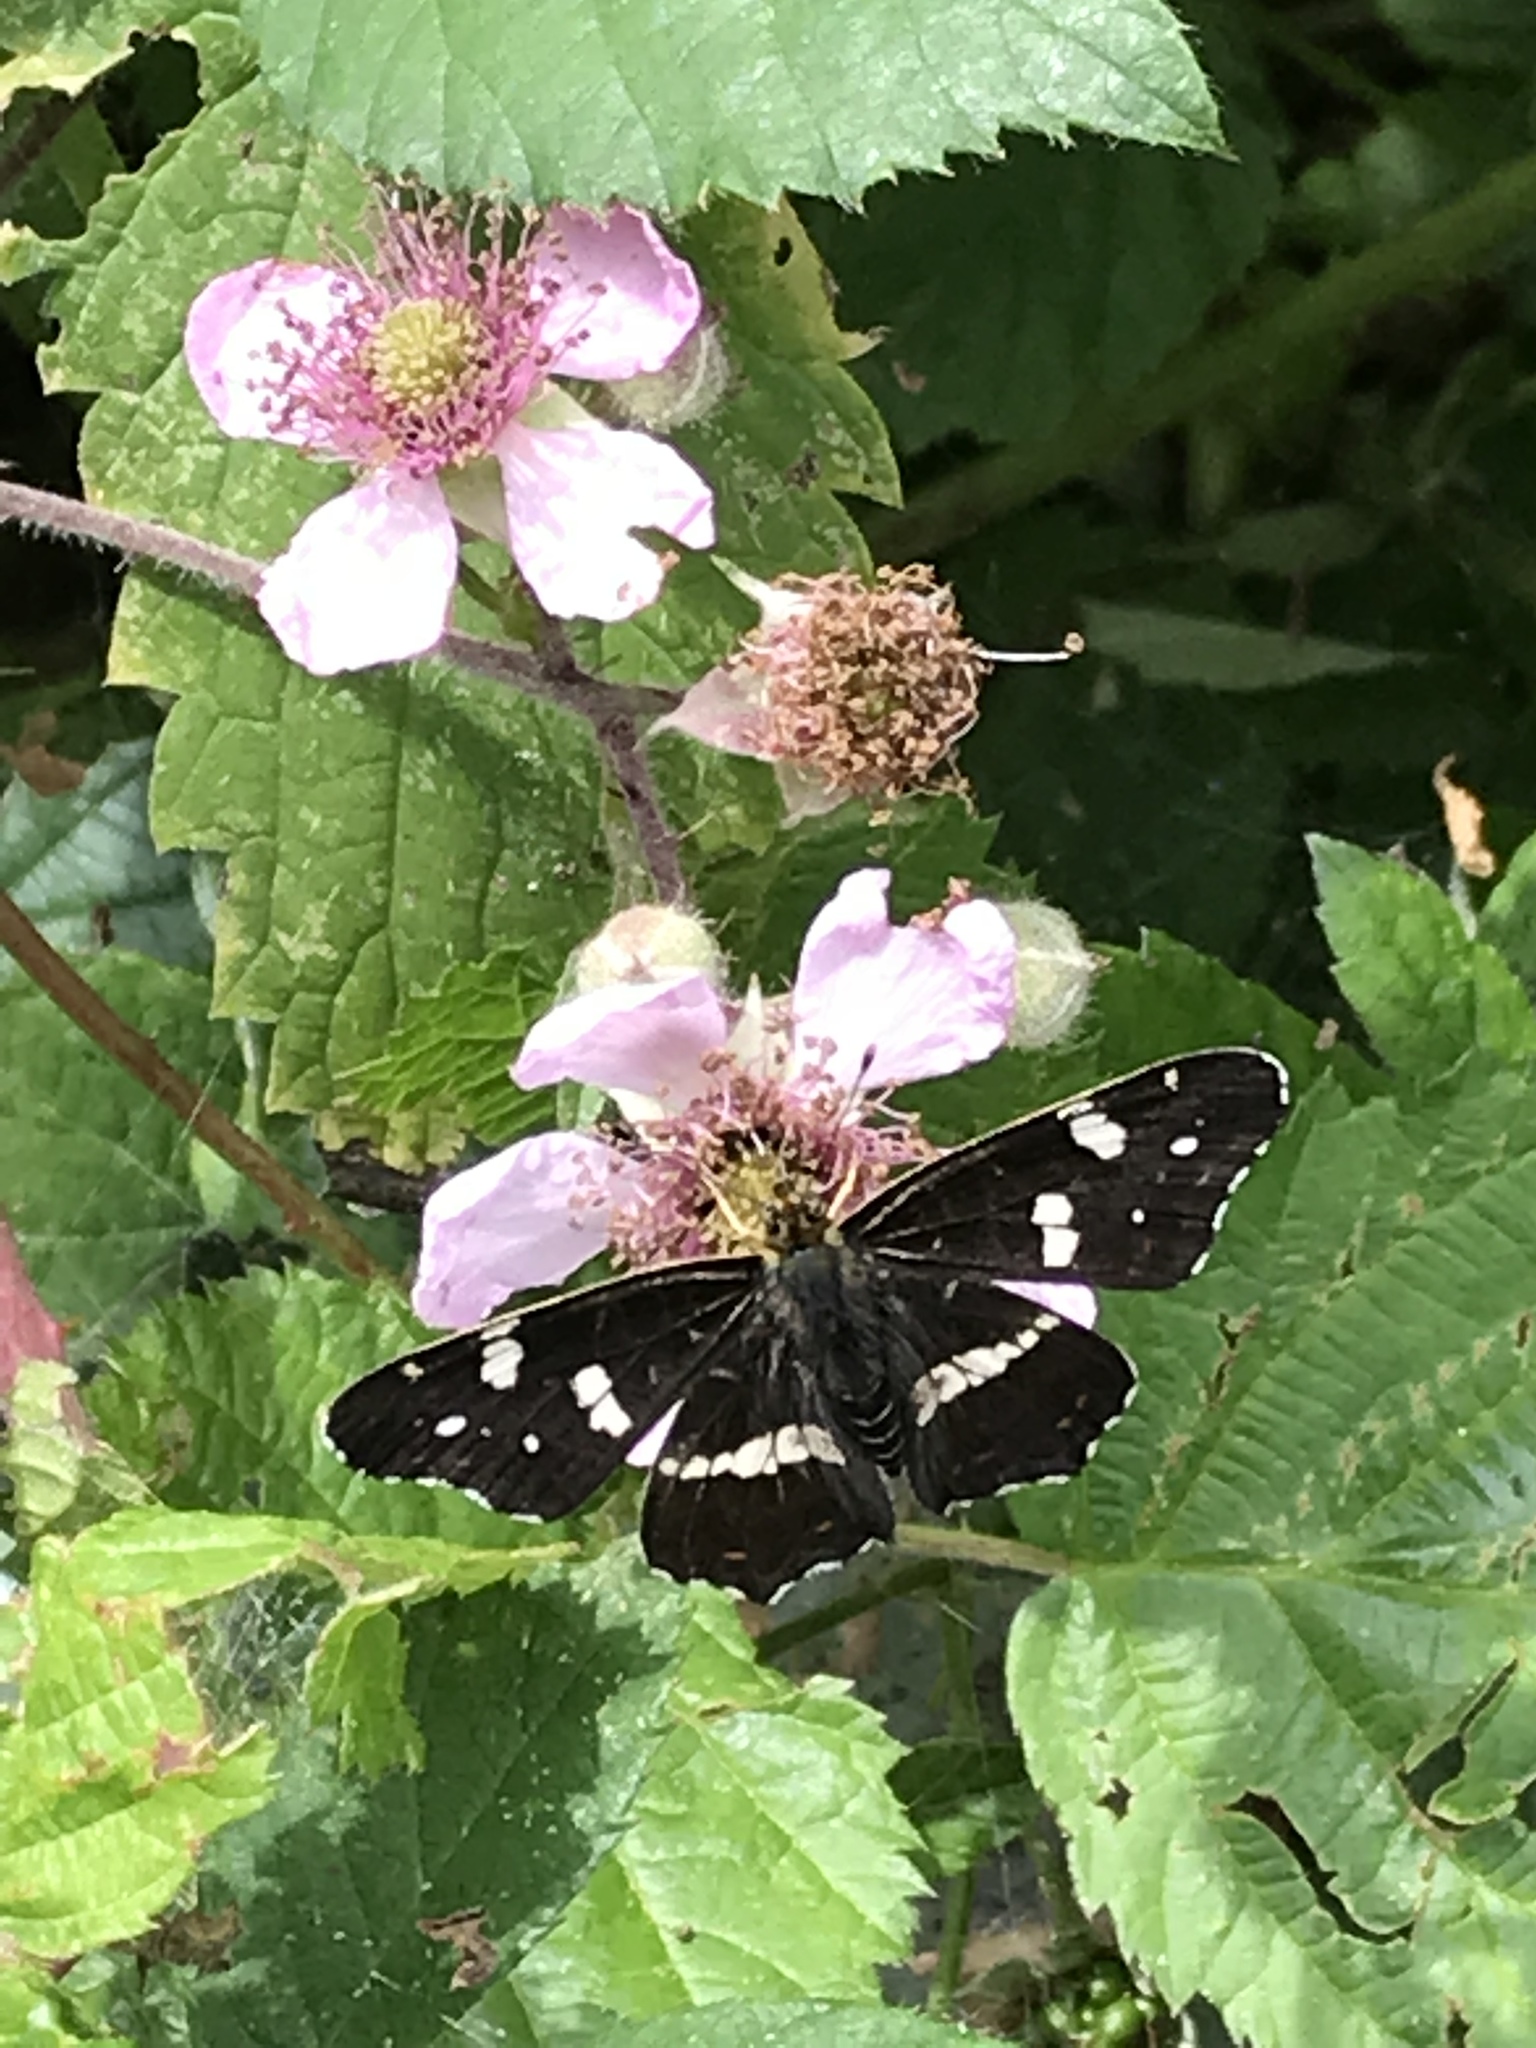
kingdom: Animalia
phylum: Arthropoda
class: Insecta
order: Lepidoptera
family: Nymphalidae
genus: Araschnia
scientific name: Araschnia levana
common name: Map butterfly
